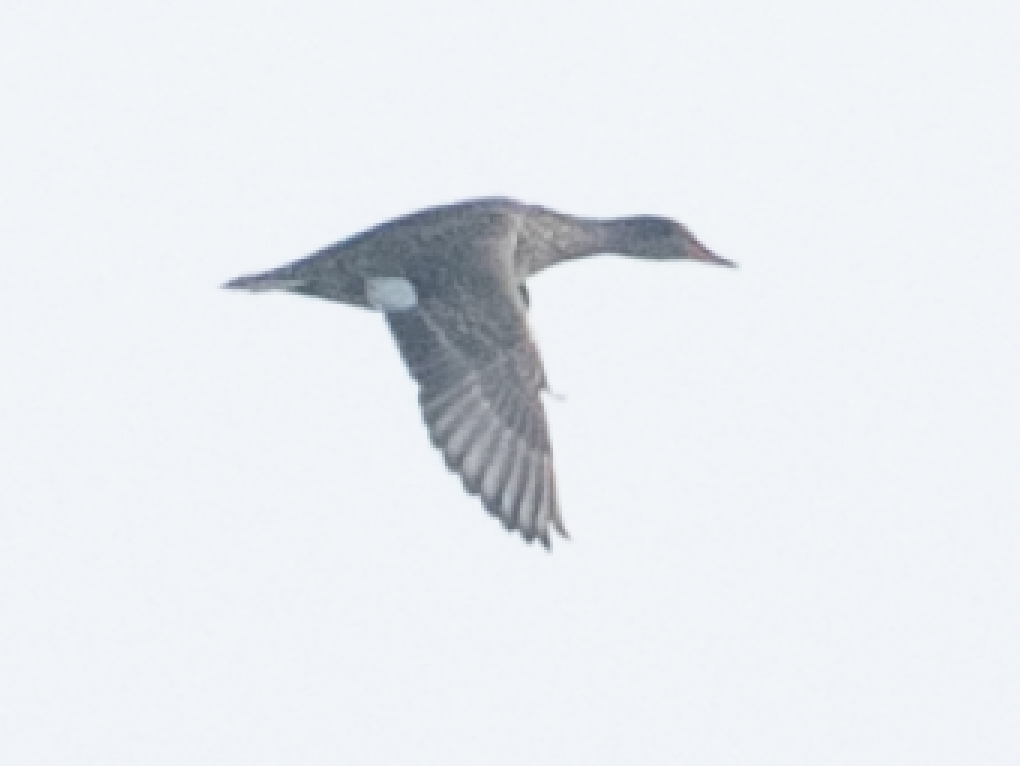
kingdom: Animalia
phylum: Chordata
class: Aves
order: Anseriformes
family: Anatidae
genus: Mareca
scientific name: Mareca strepera
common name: Gadwall
